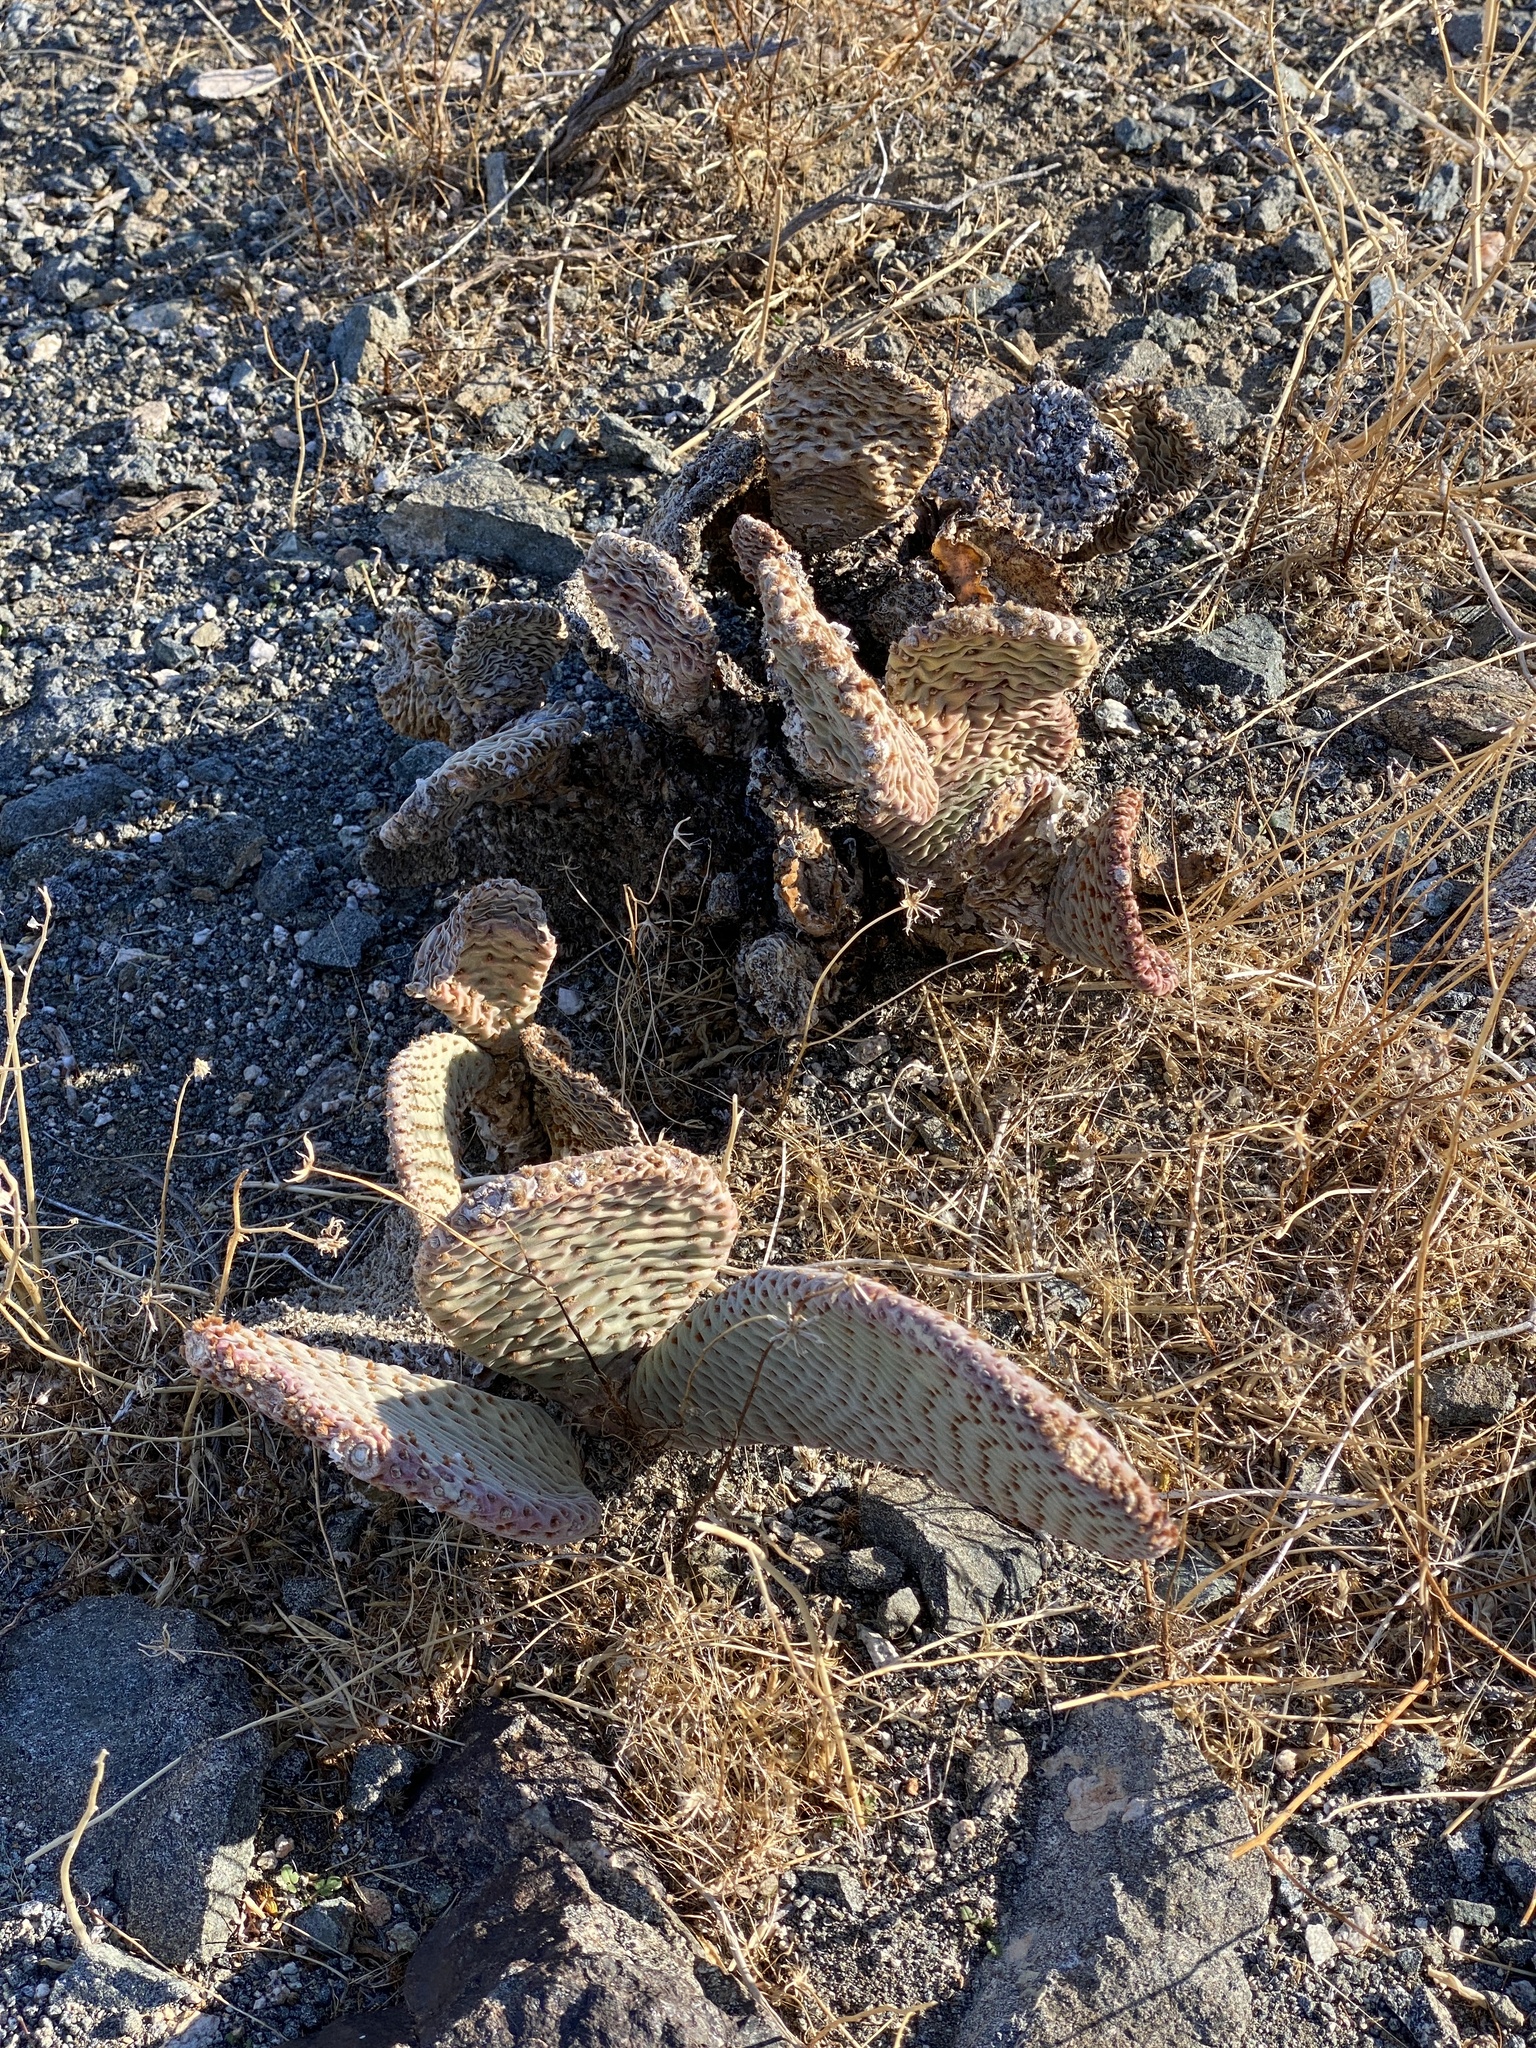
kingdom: Plantae
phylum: Tracheophyta
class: Magnoliopsida
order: Caryophyllales
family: Cactaceae
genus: Opuntia
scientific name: Opuntia basilaris
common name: Beavertail prickly-pear
